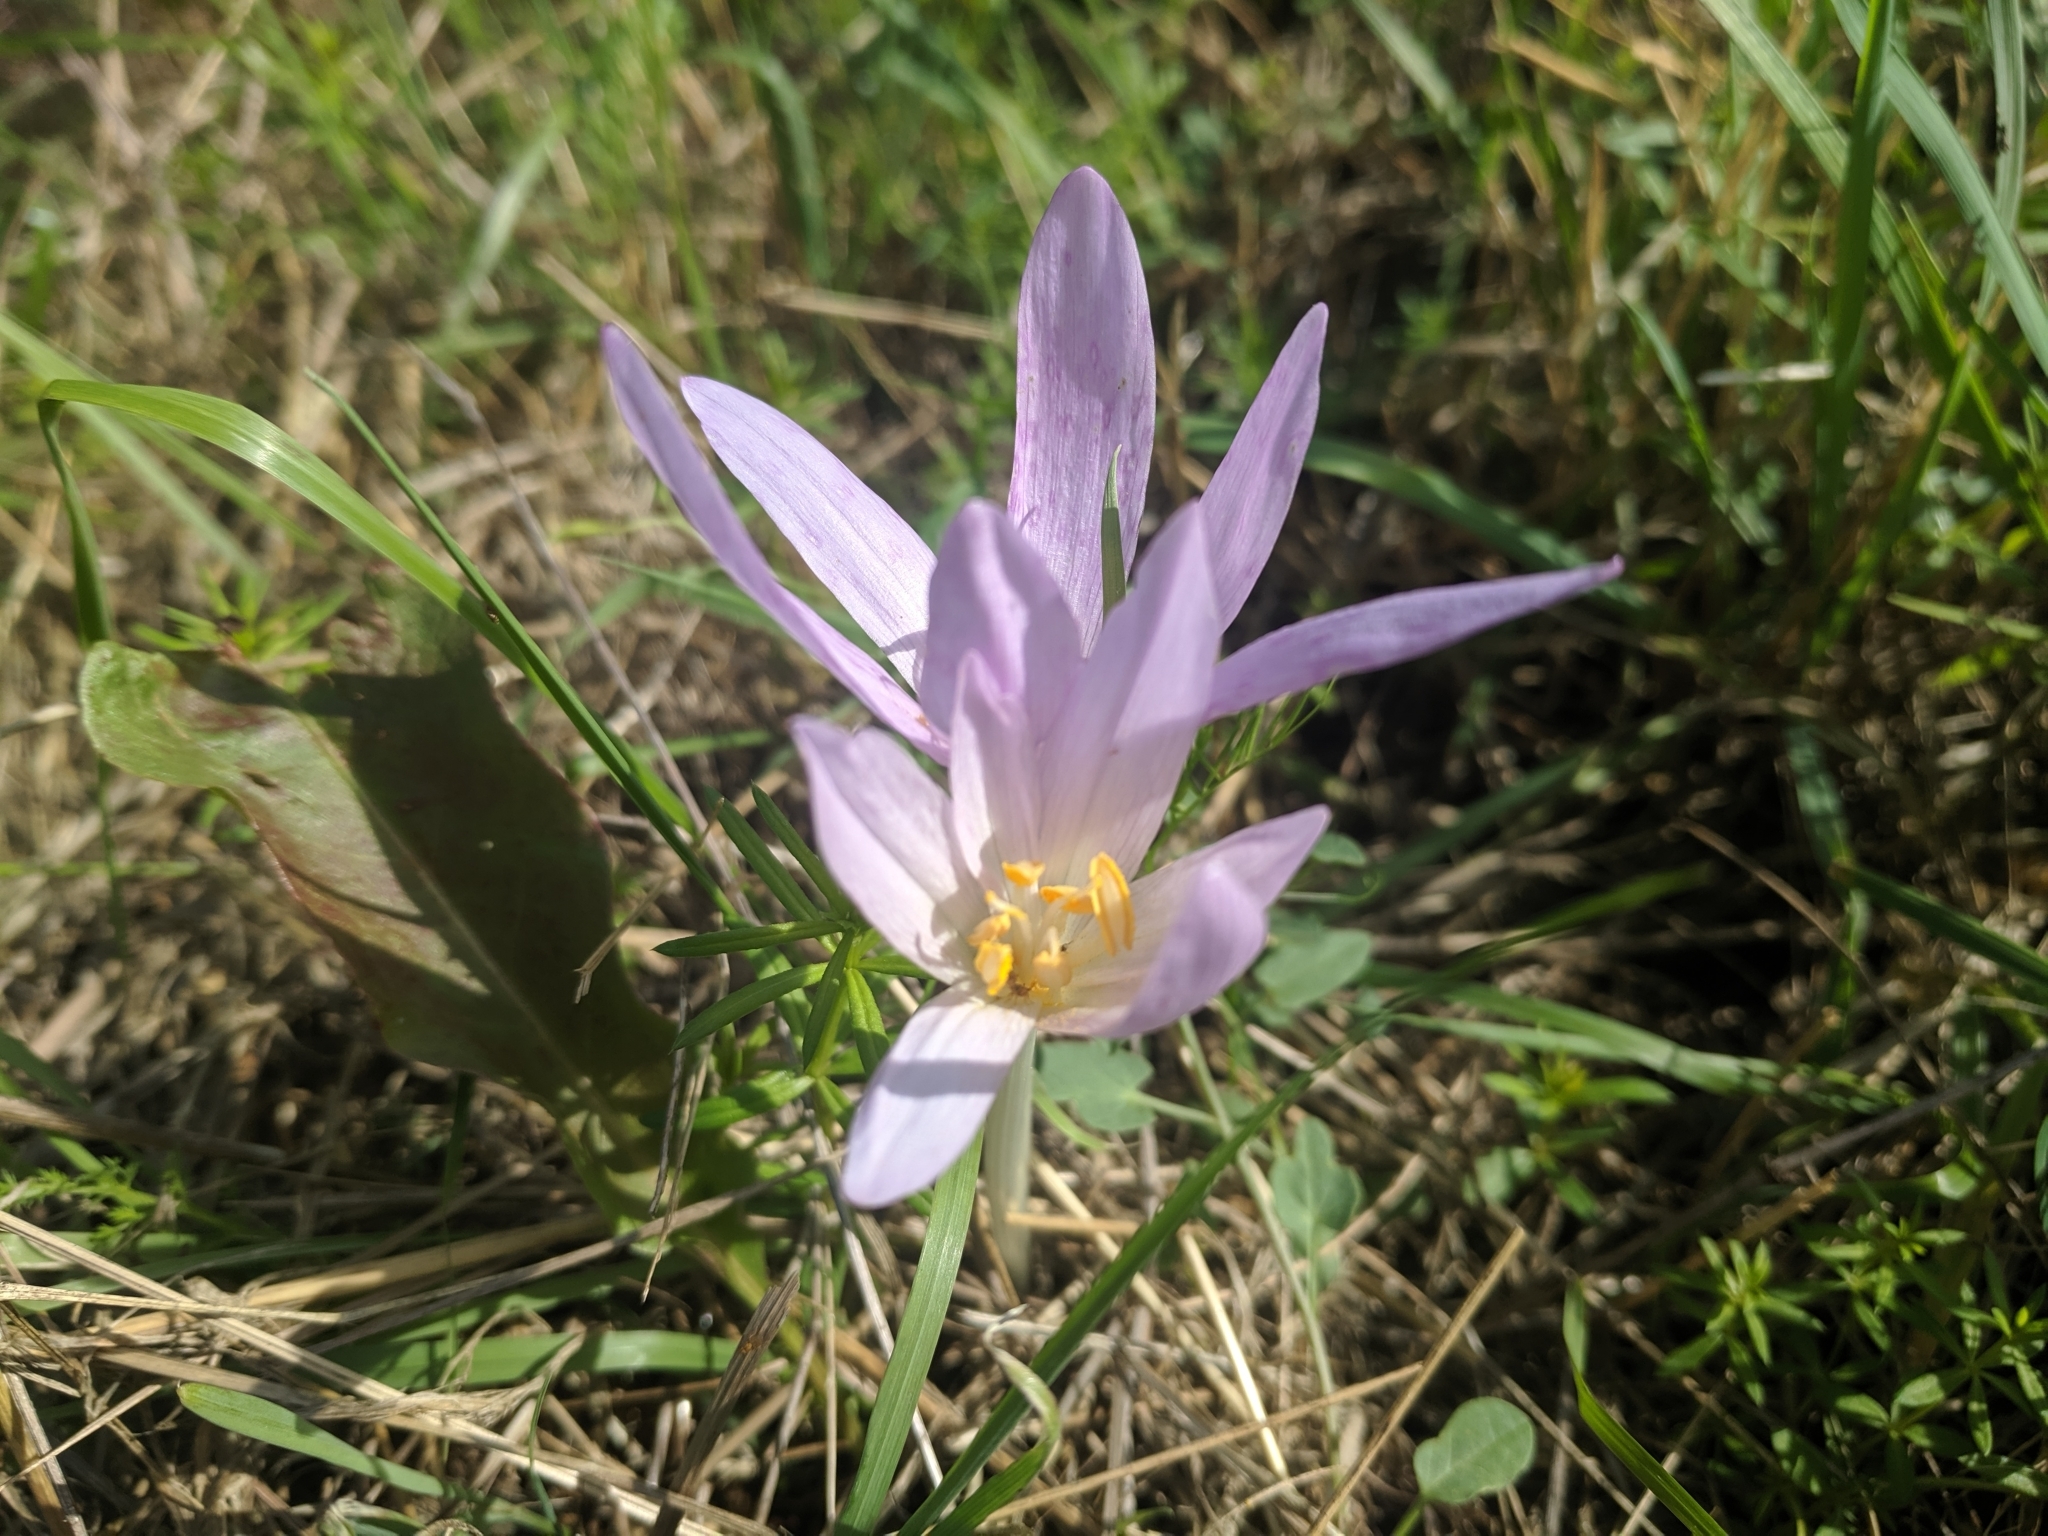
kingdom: Plantae
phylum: Tracheophyta
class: Liliopsida
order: Liliales
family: Colchicaceae
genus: Colchicum
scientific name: Colchicum autumnale
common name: Autumn crocus
